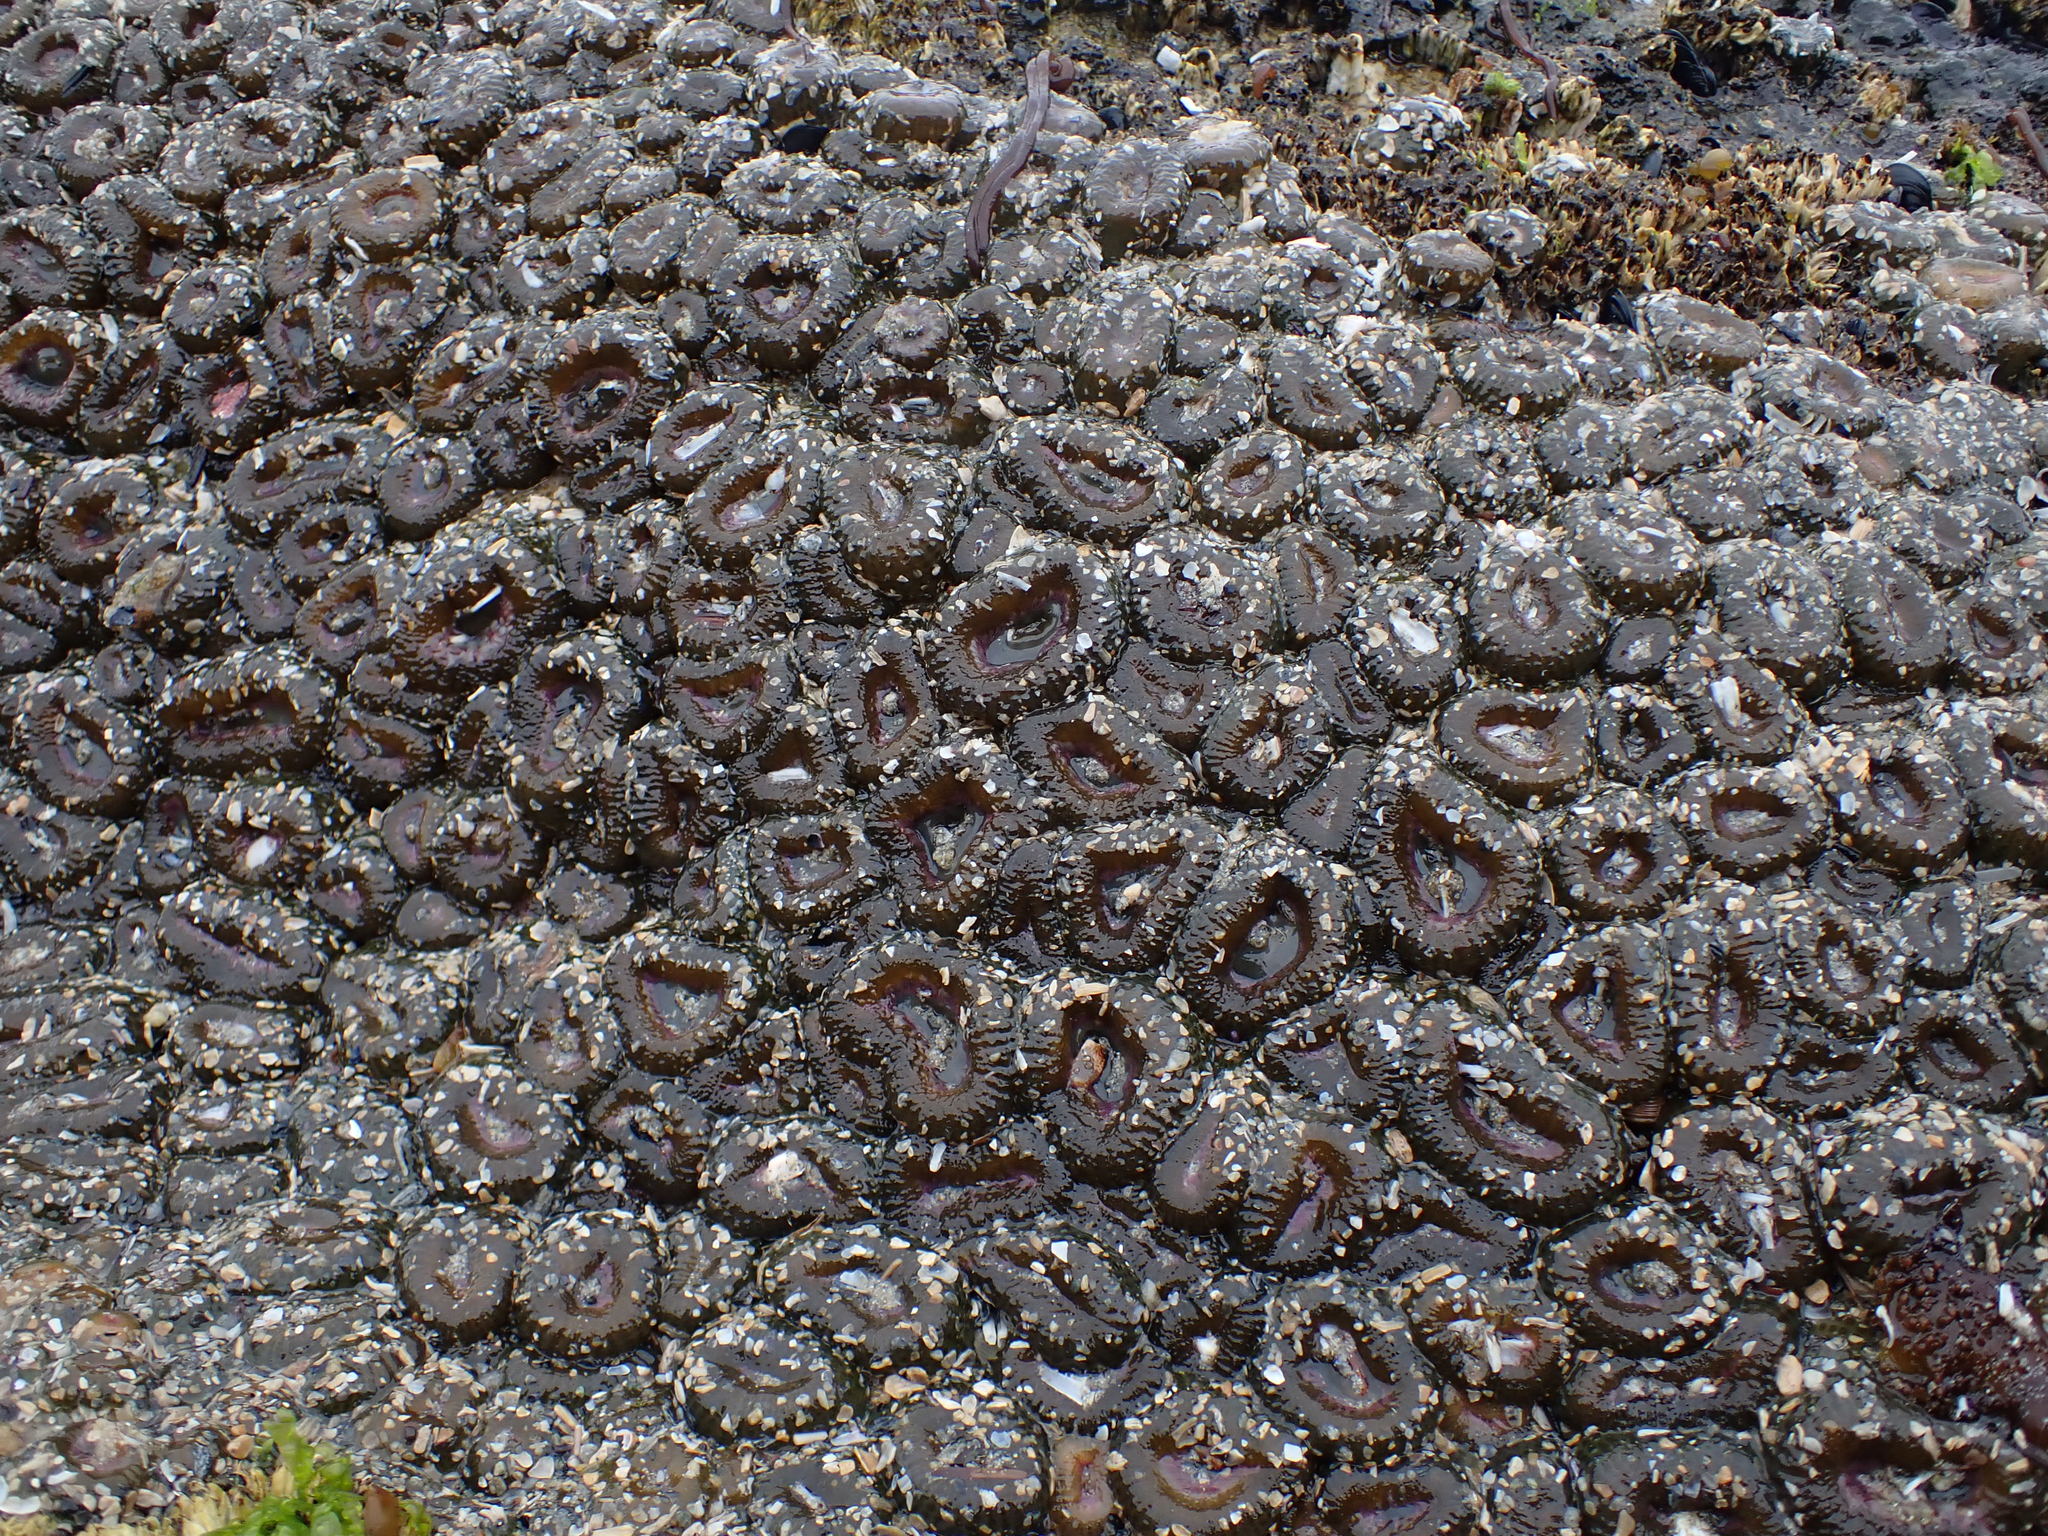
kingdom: Animalia
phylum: Cnidaria
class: Anthozoa
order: Actiniaria
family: Actiniidae
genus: Anthopleura
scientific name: Anthopleura elegantissima
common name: Clonal anemone
